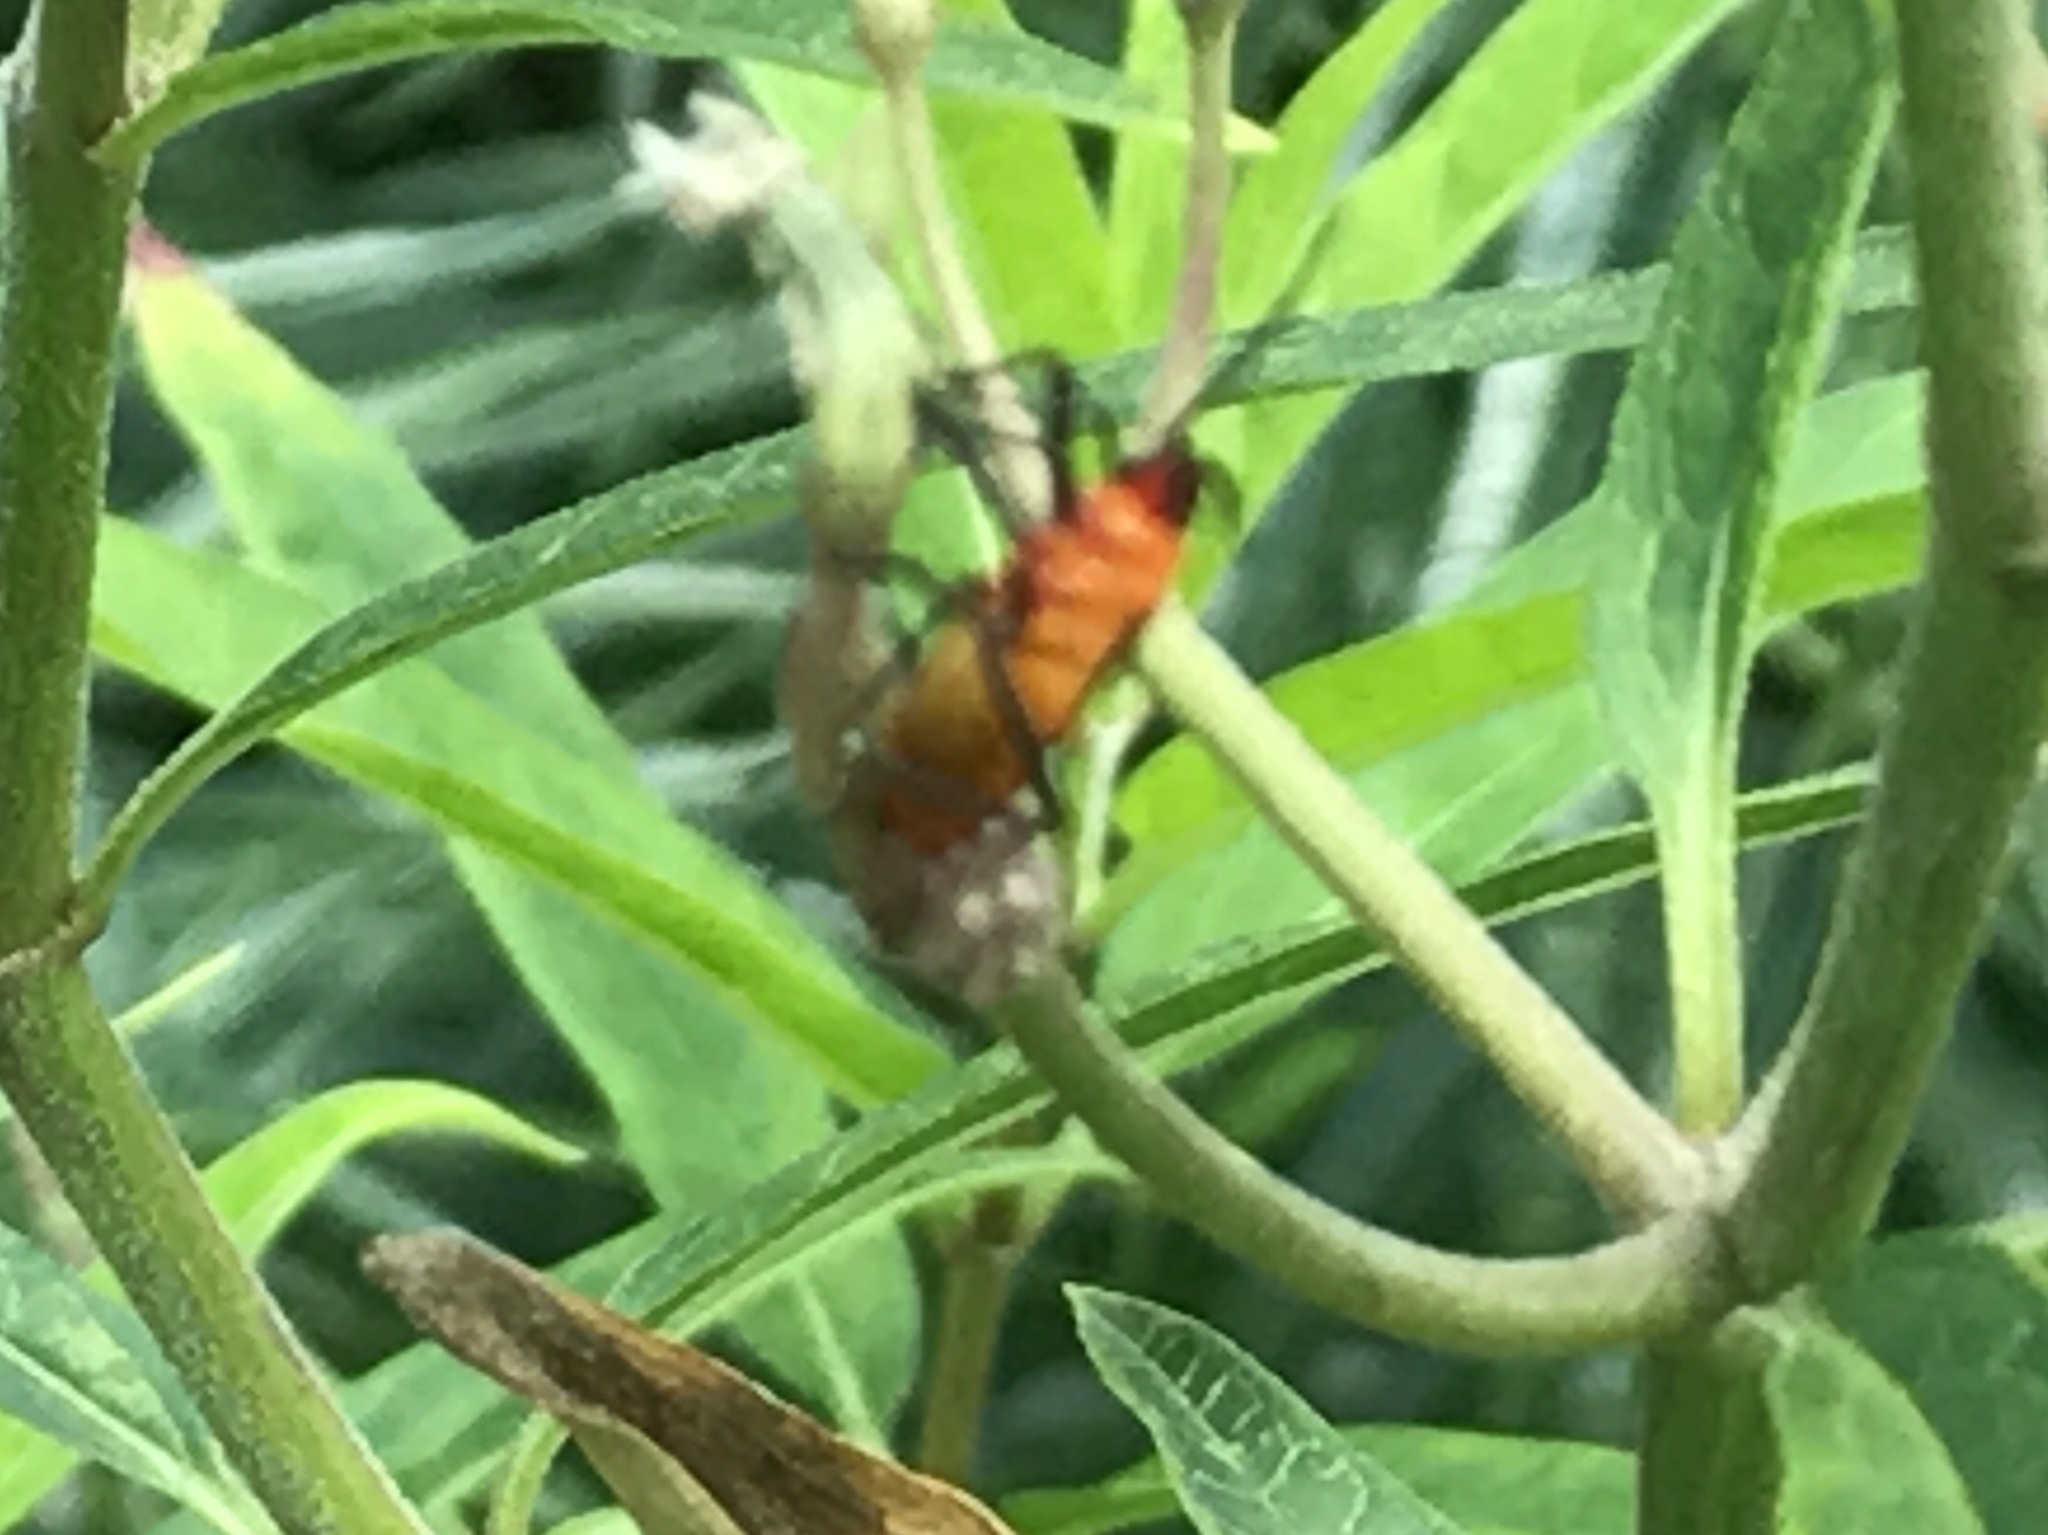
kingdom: Animalia
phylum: Arthropoda
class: Insecta
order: Hemiptera
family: Lygaeidae
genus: Oncopeltus
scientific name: Oncopeltus fasciatus
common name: Large milkweed bug
